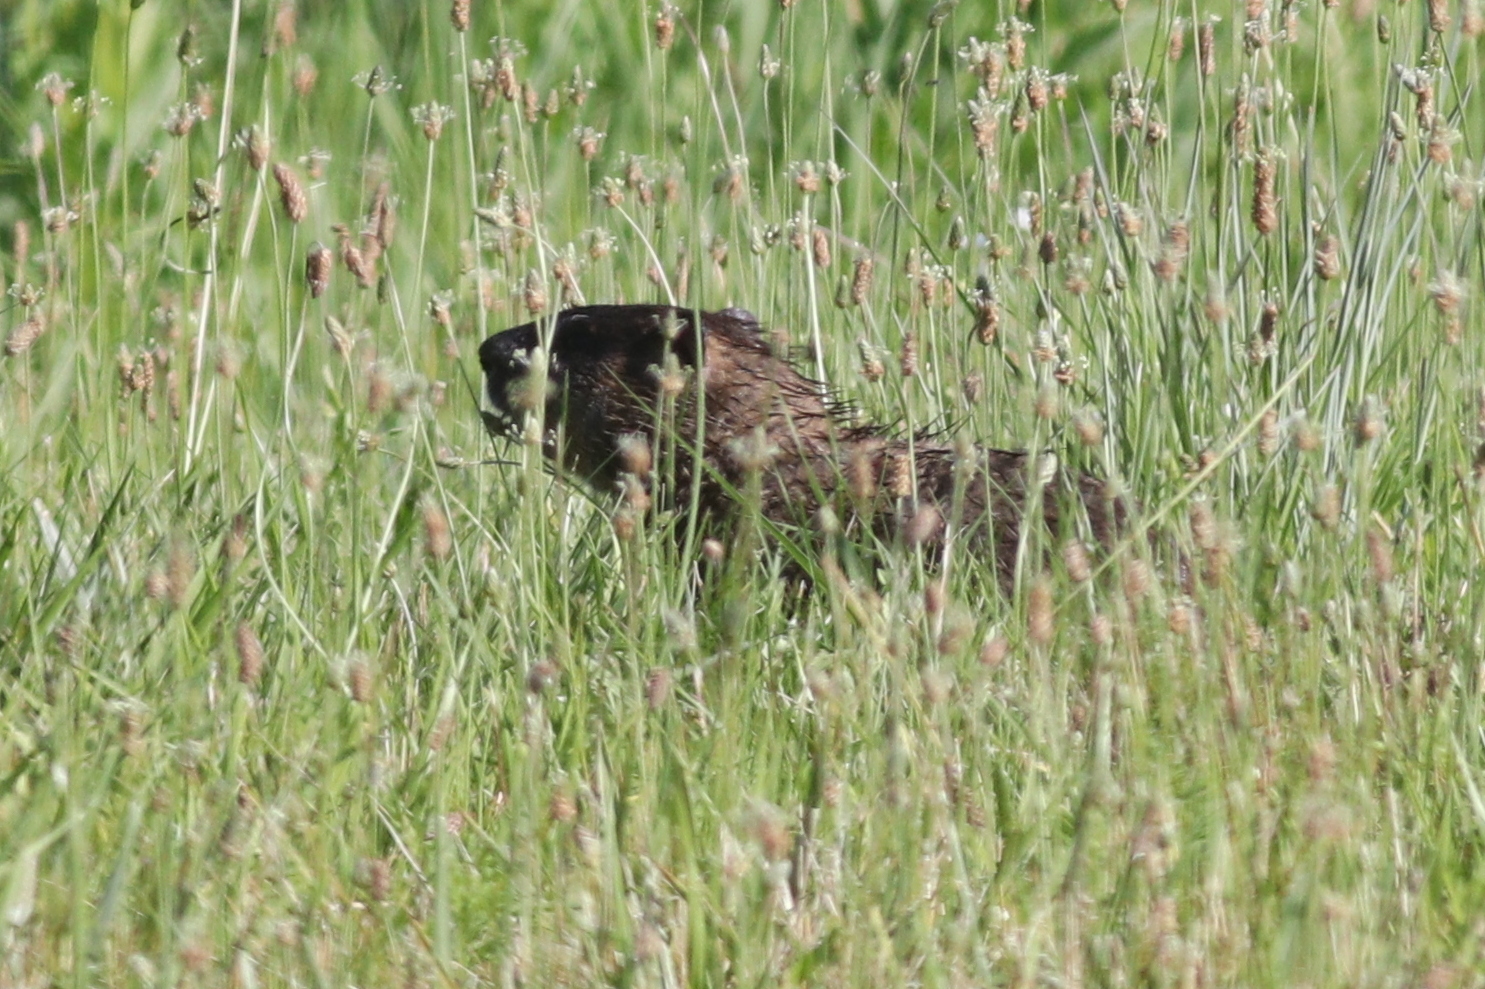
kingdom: Animalia
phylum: Chordata
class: Mammalia
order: Rodentia
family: Sciuridae
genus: Marmota
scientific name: Marmota monax
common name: Groundhog
